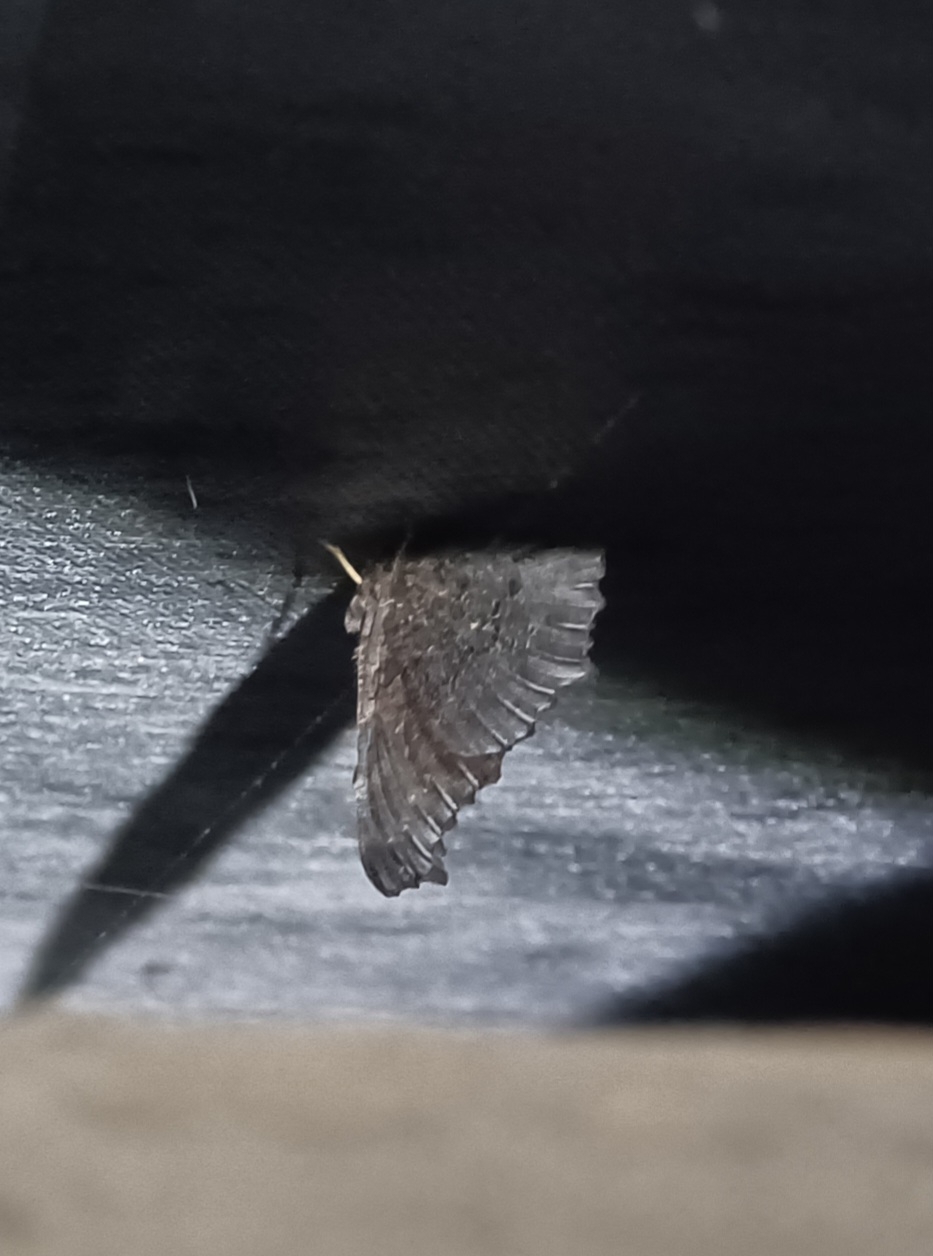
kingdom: Animalia
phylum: Arthropoda
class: Insecta
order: Lepidoptera
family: Nymphalidae
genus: Aglais
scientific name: Aglais io
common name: Peacock
